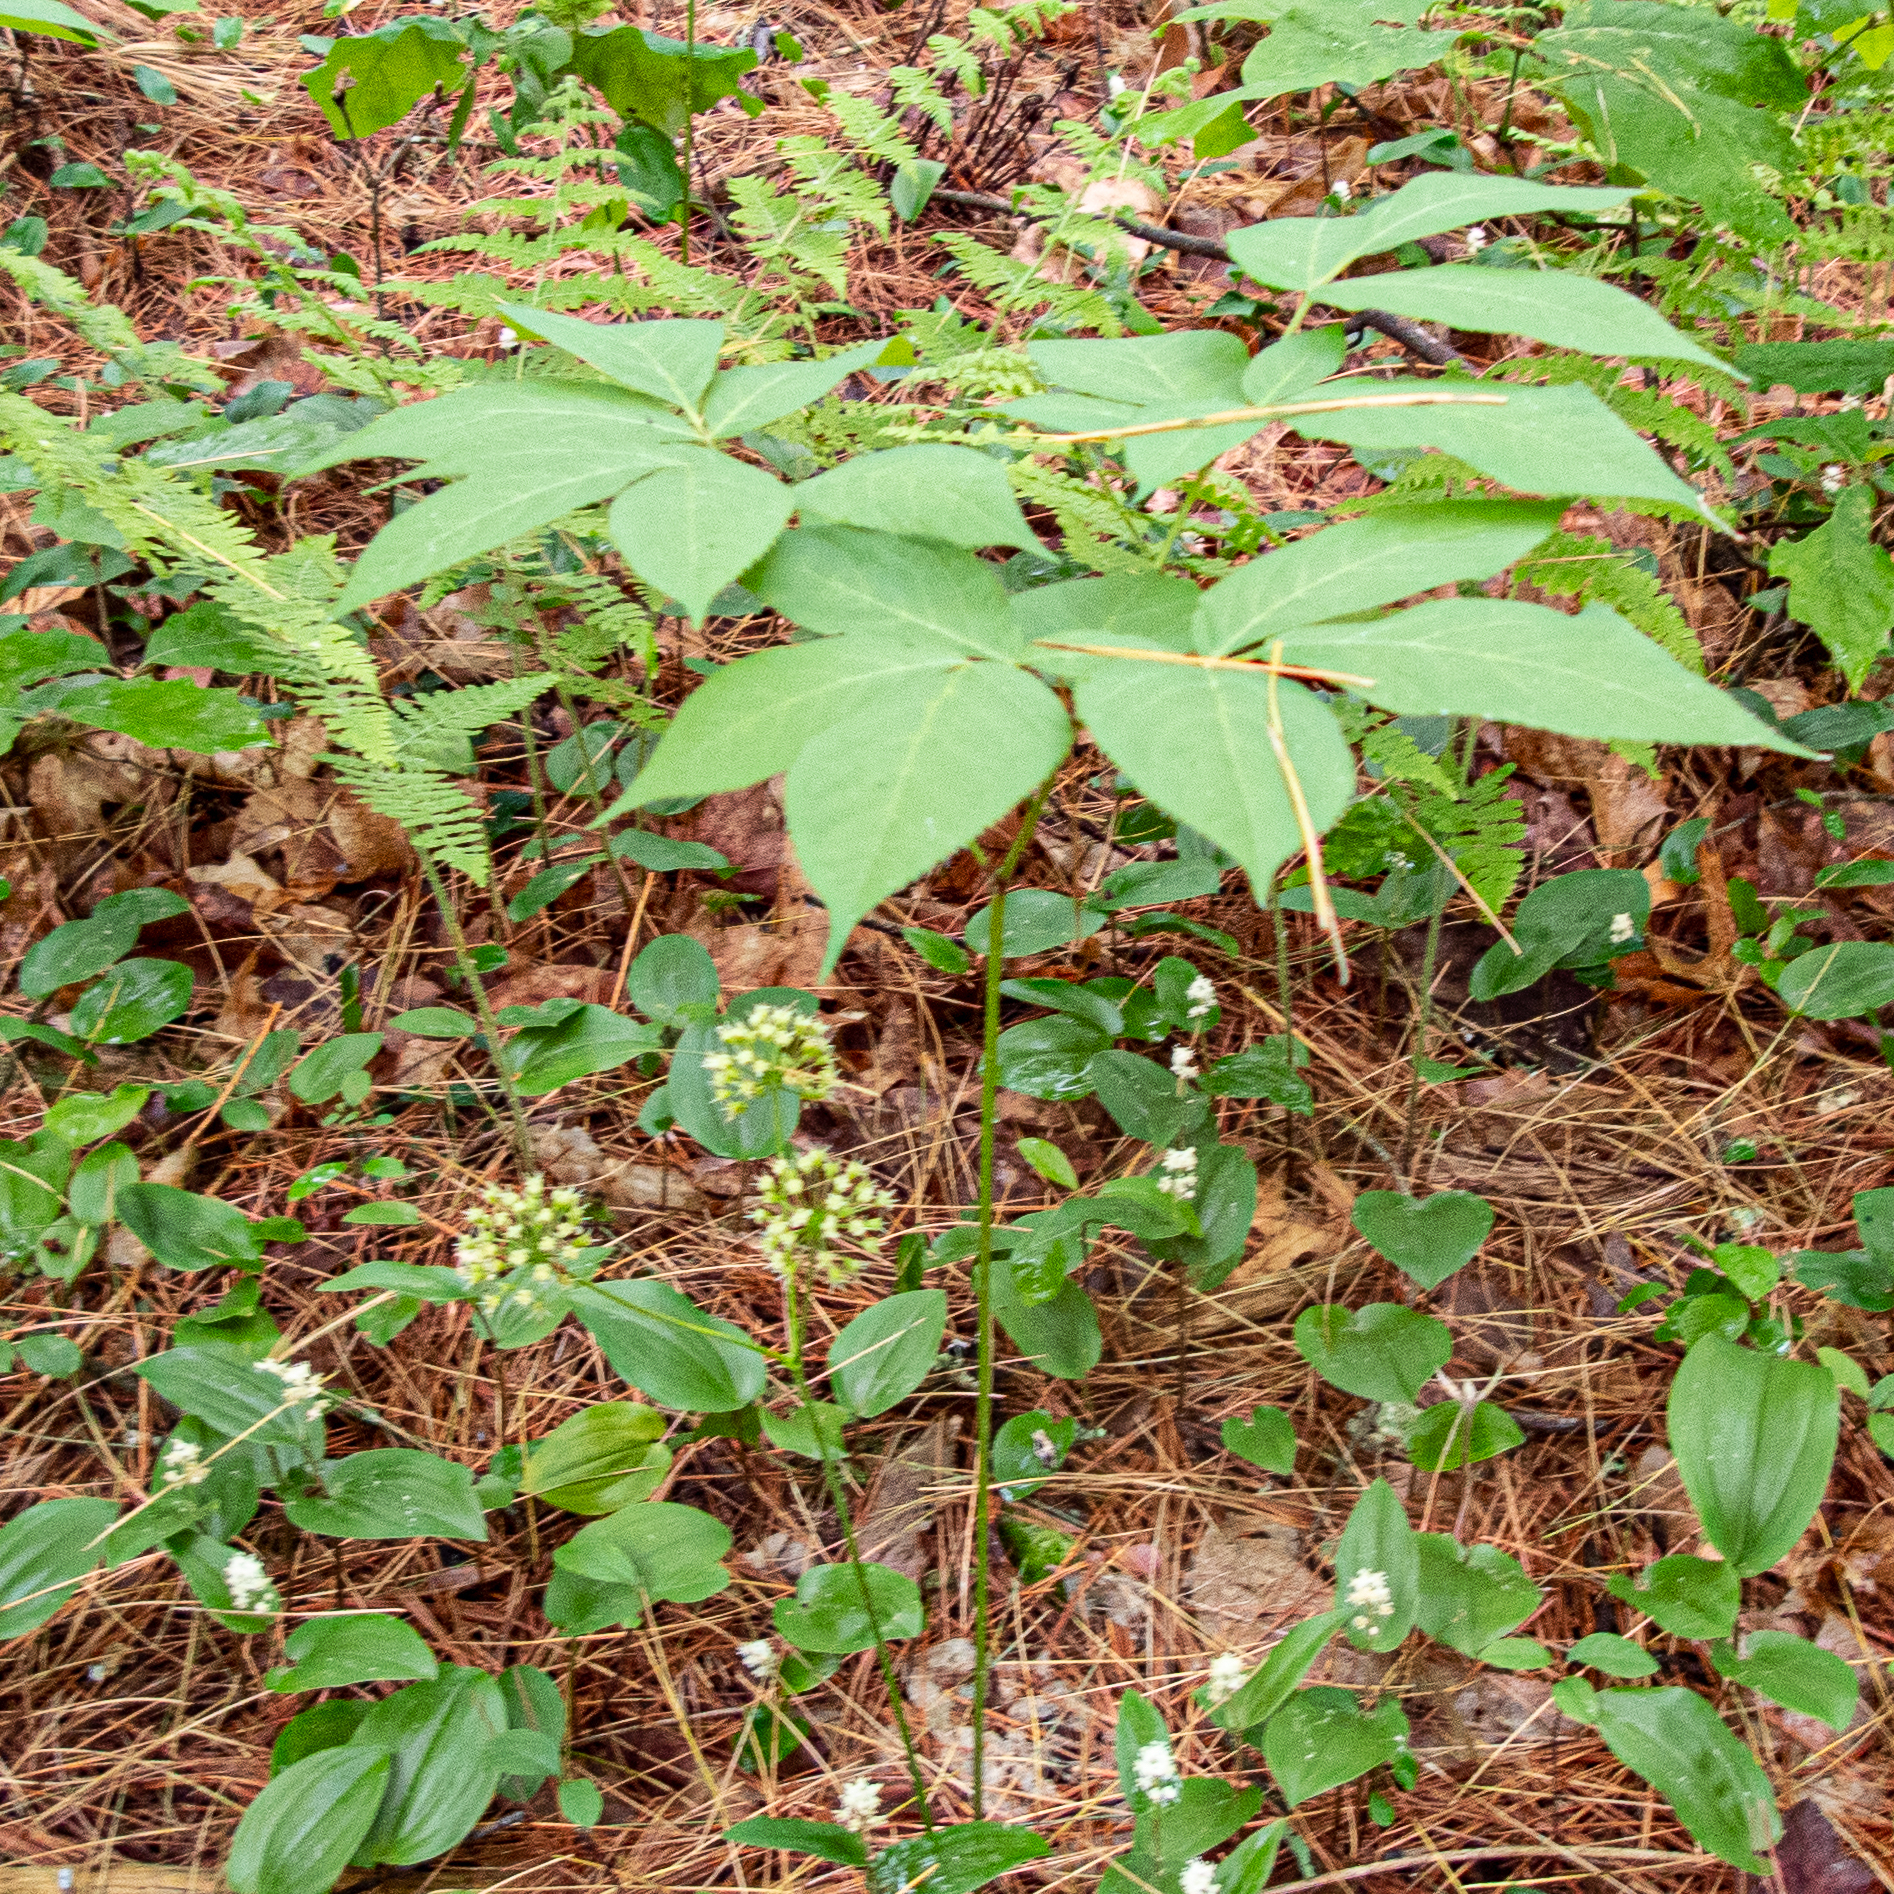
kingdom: Plantae
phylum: Tracheophyta
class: Magnoliopsida
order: Apiales
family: Araliaceae
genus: Aralia
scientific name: Aralia nudicaulis
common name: Wild sarsaparilla
